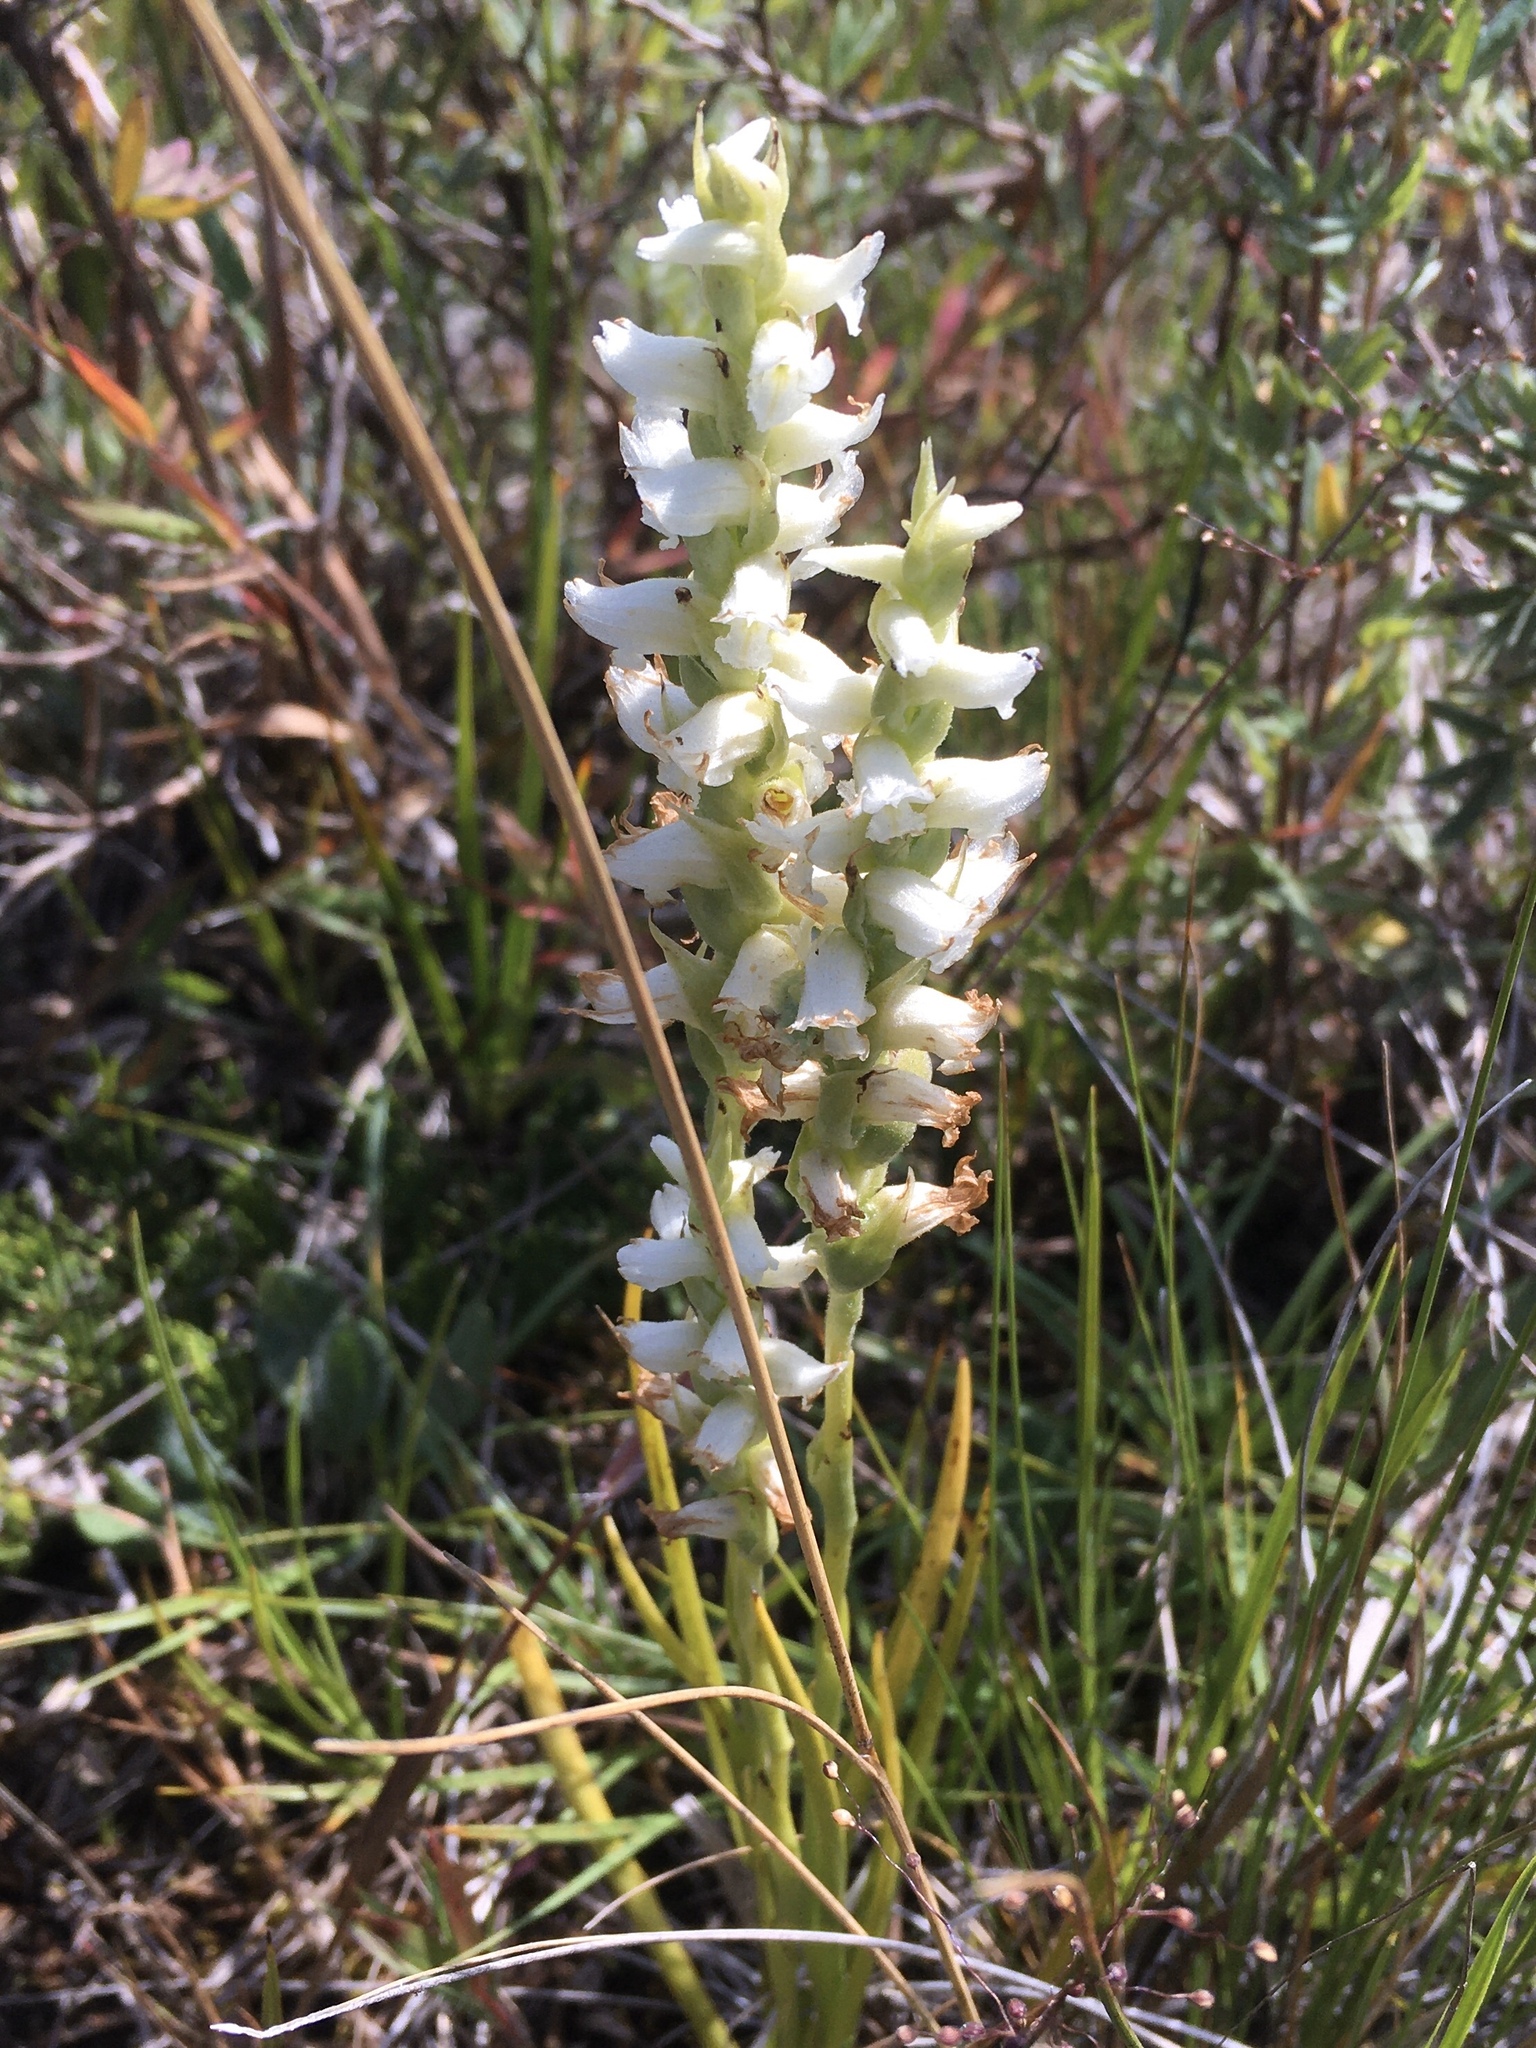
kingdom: Plantae
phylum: Tracheophyta
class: Liliopsida
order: Asparagales
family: Orchidaceae
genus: Spiranthes
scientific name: Spiranthes romanzoffiana
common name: Irish lady's-tresses
